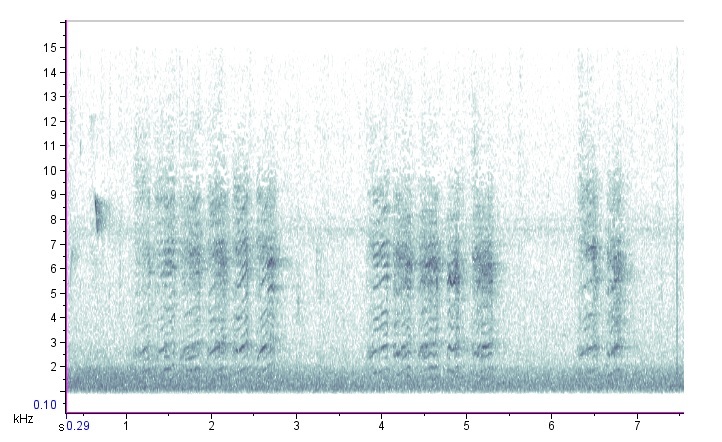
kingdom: Animalia
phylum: Chordata
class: Aves
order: Passeriformes
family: Paridae
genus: Poecile
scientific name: Poecile atricapillus
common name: Black-capped chickadee
